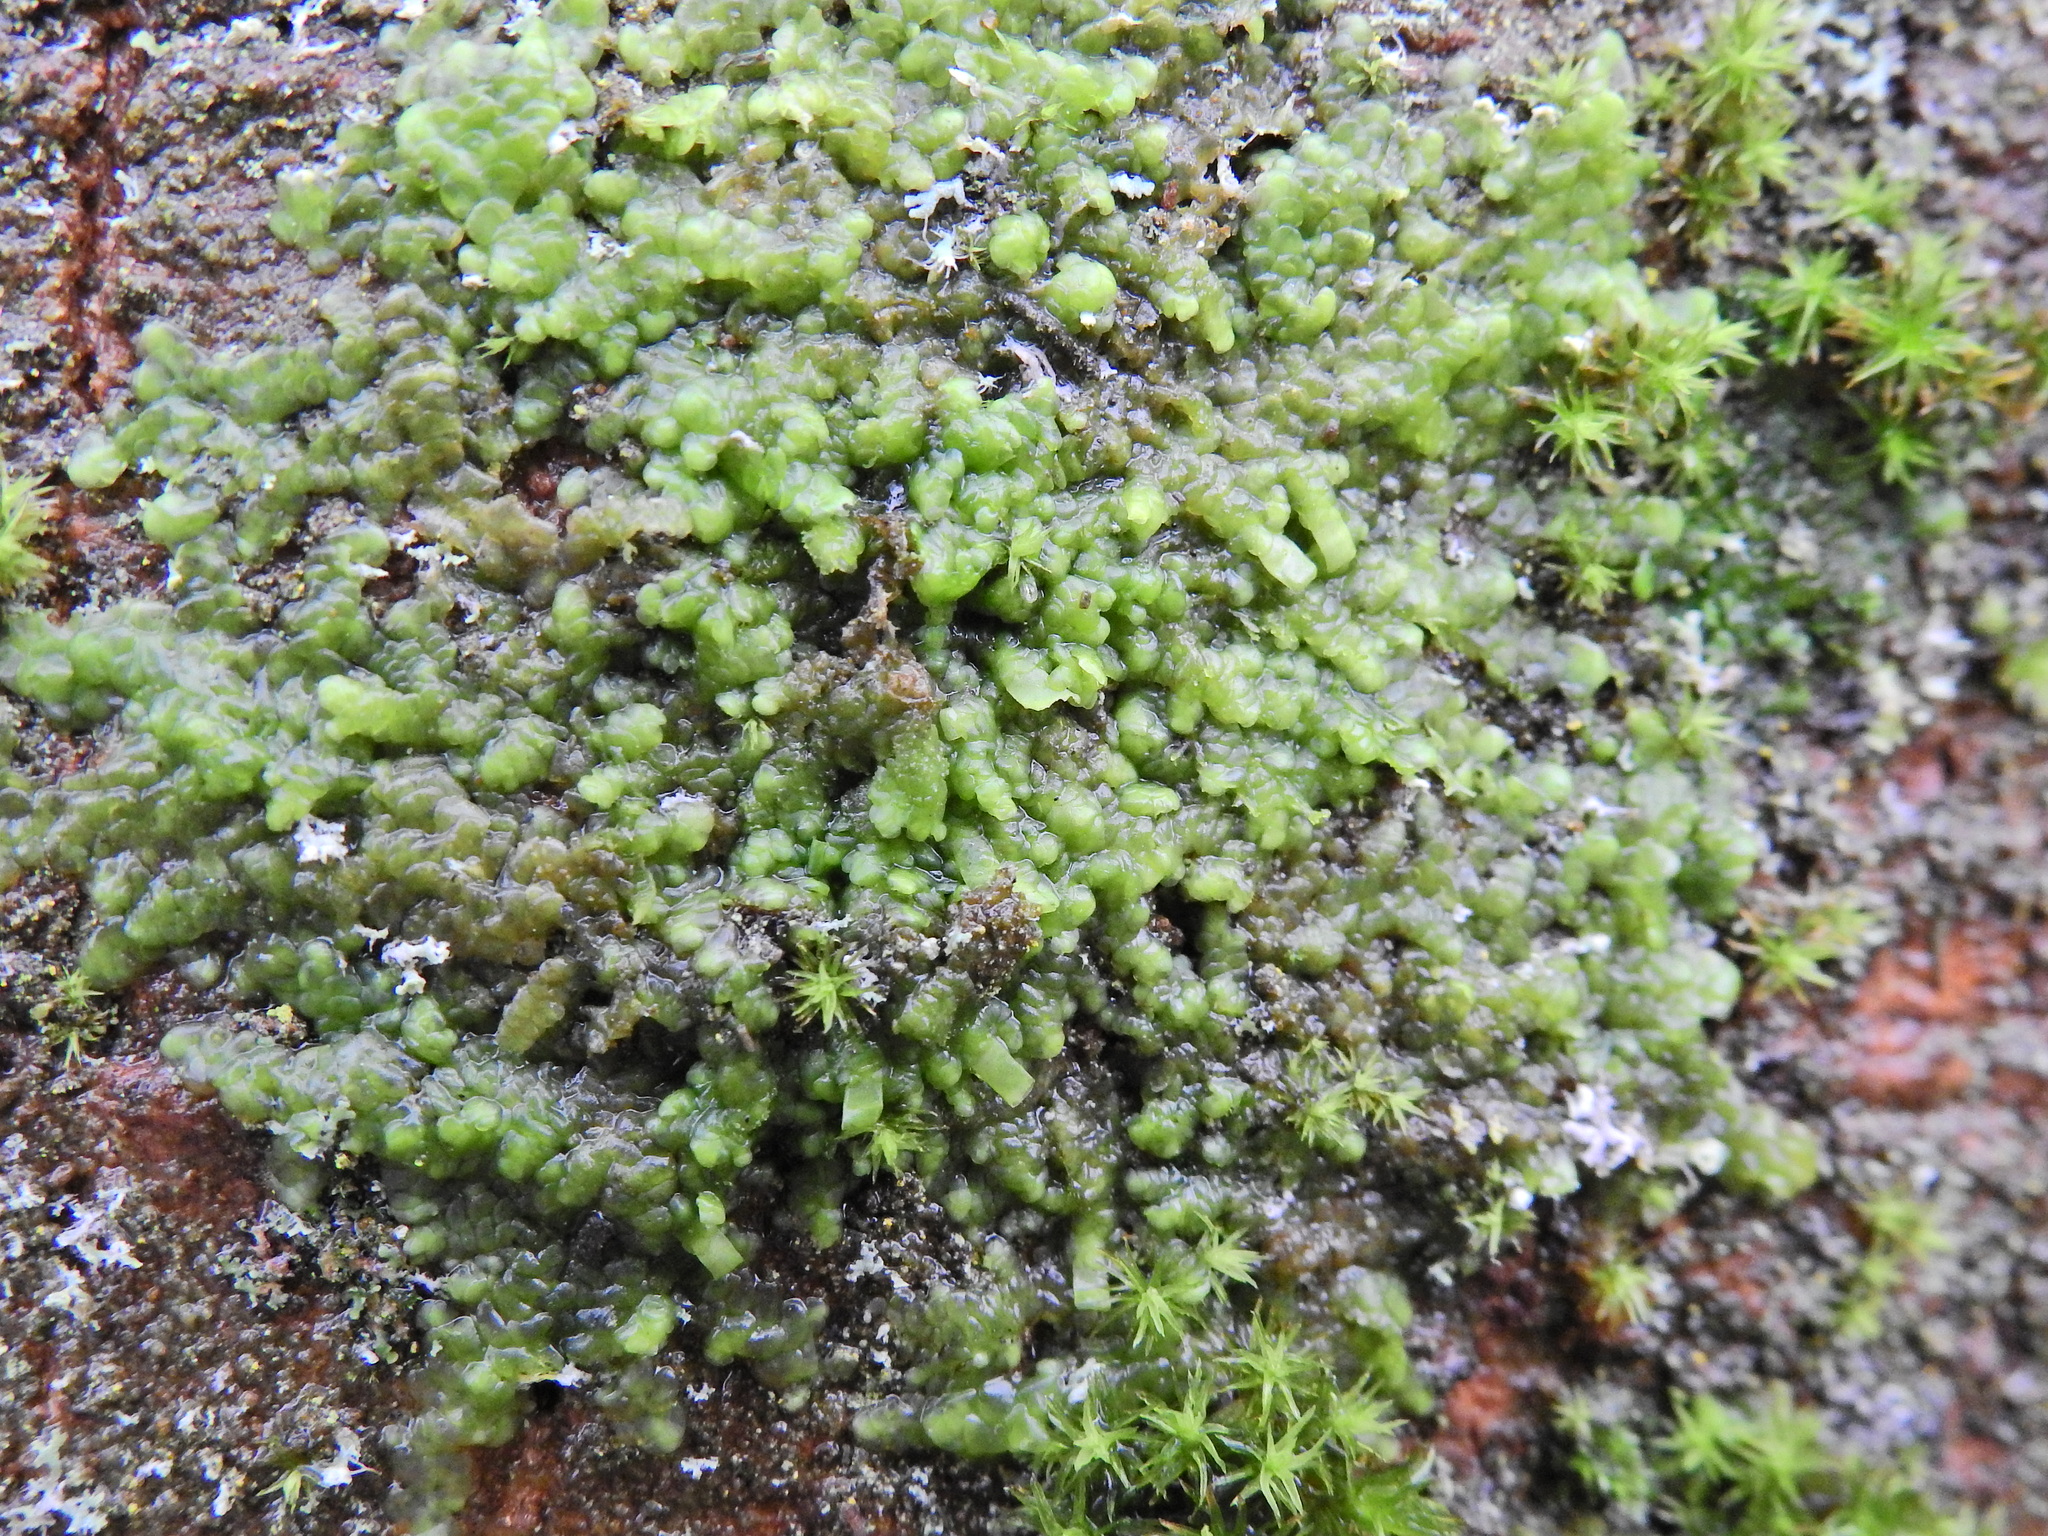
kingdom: Plantae
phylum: Marchantiophyta
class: Jungermanniopsida
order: Porellales
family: Radulaceae
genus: Radula
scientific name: Radula complanata
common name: Flat-leaved scalewort
